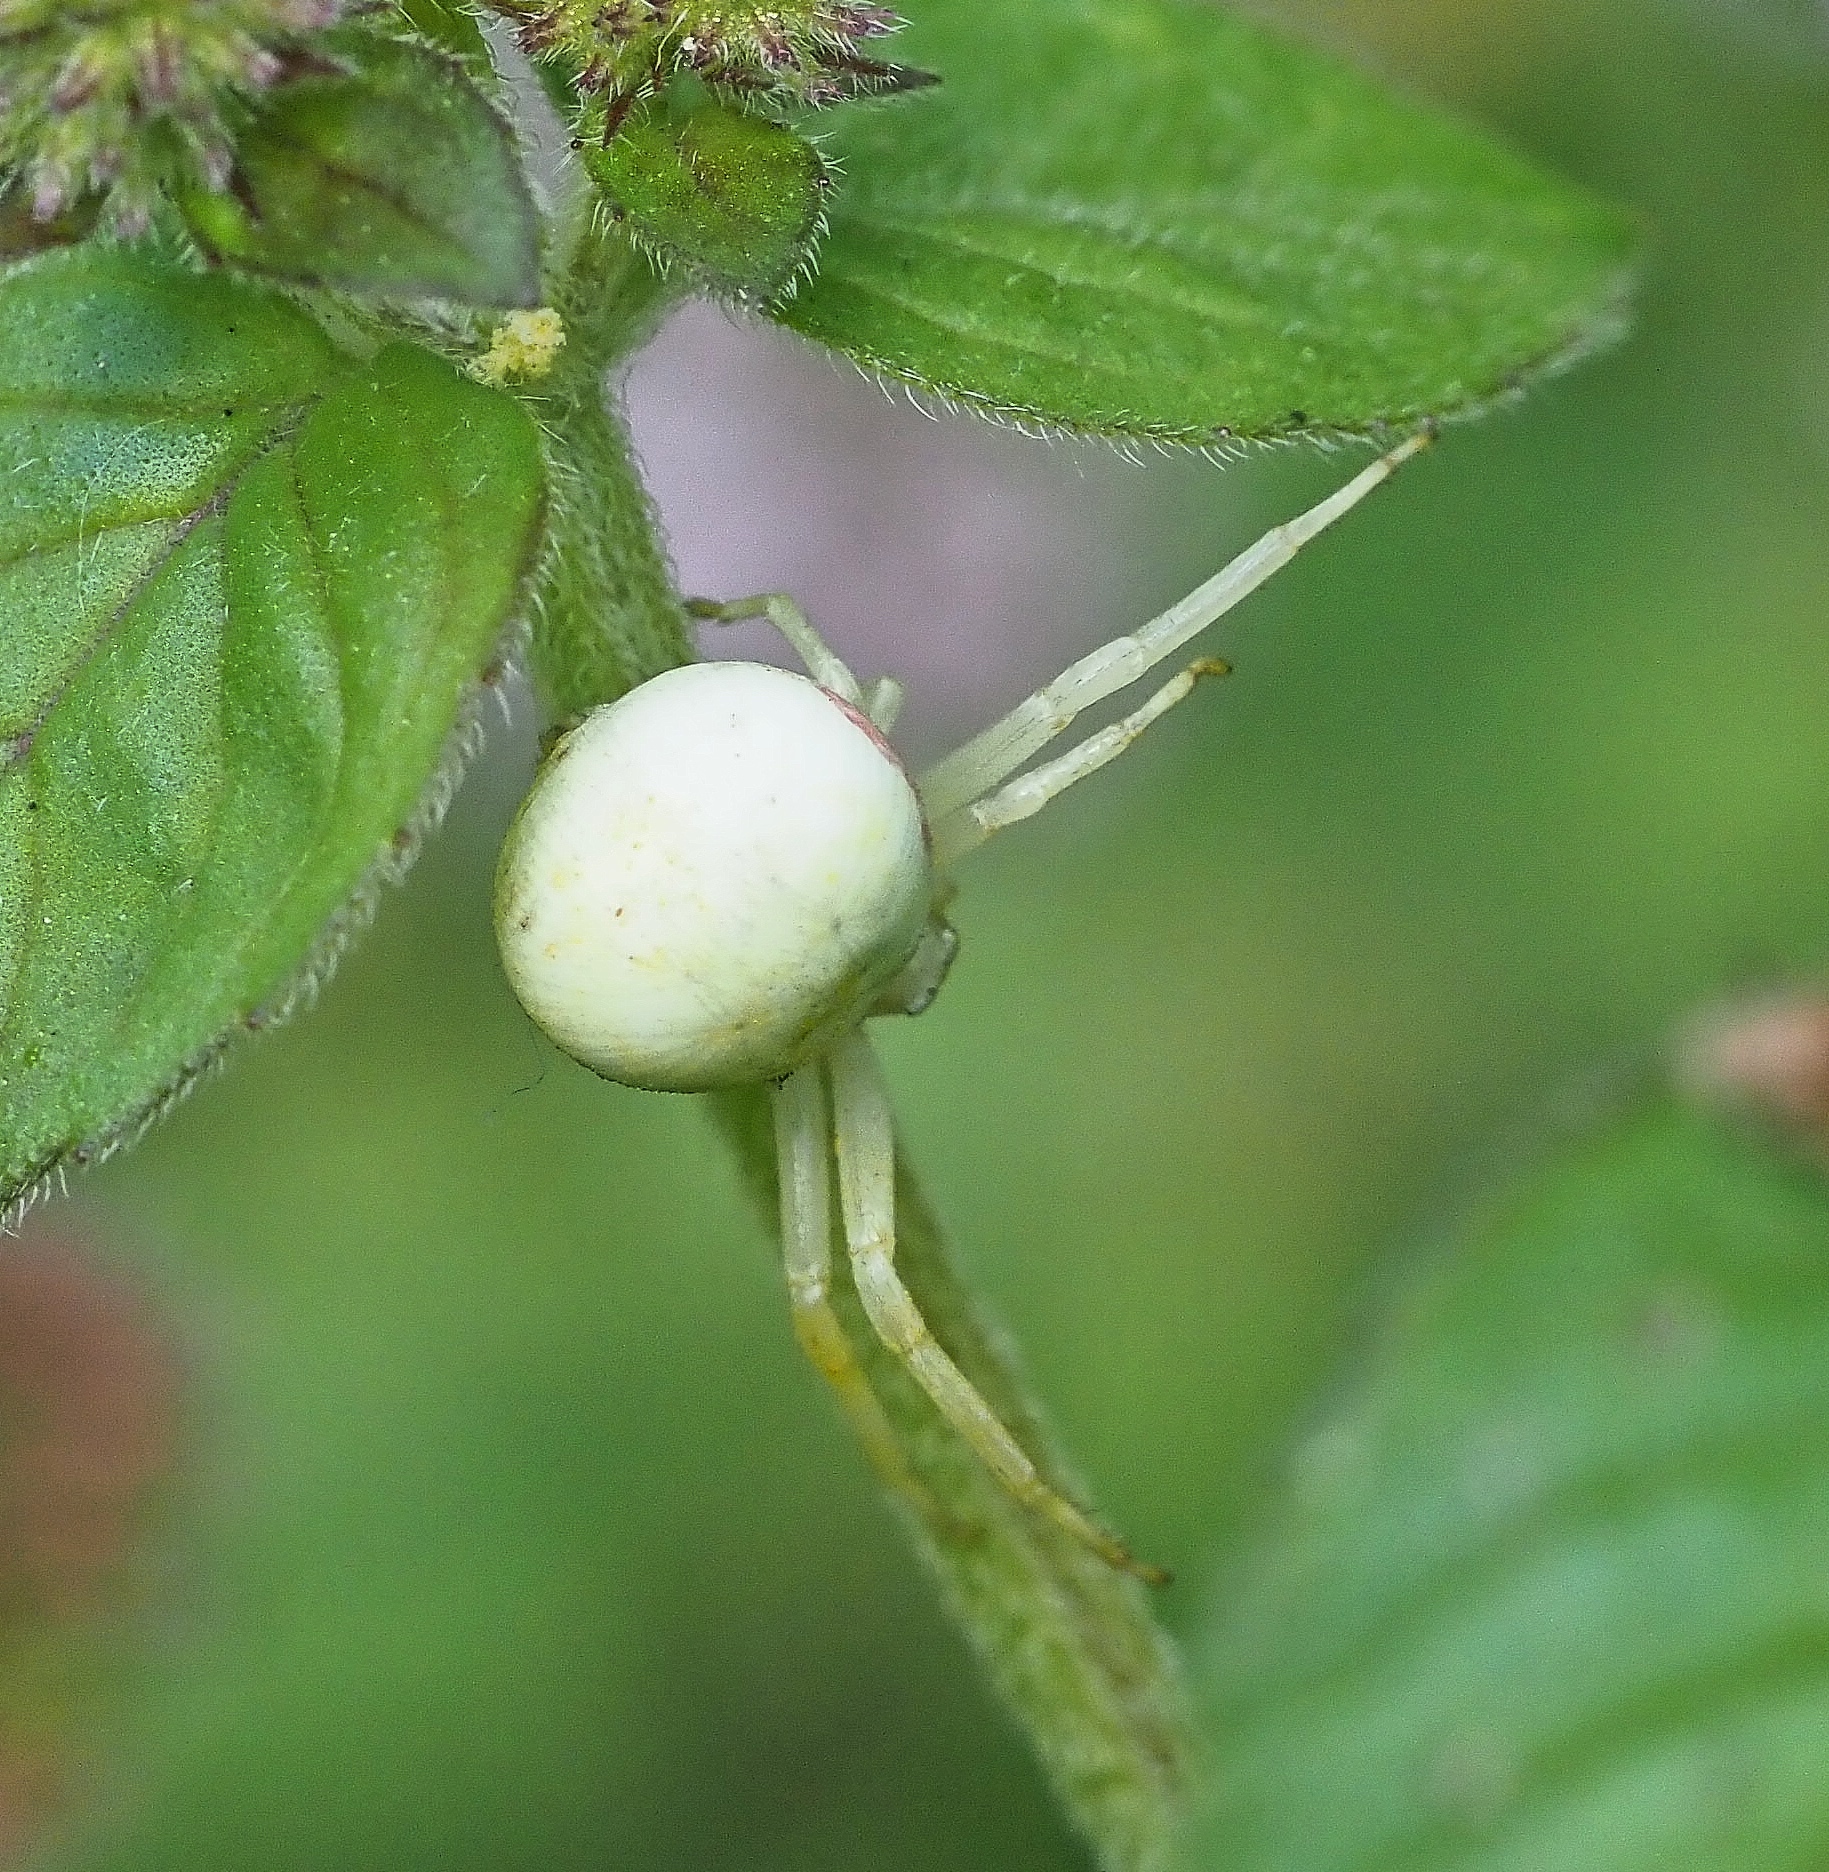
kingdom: Animalia
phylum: Arthropoda
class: Arachnida
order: Araneae
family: Thomisidae
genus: Misumena
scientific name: Misumena vatia
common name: Goldenrod crab spider
